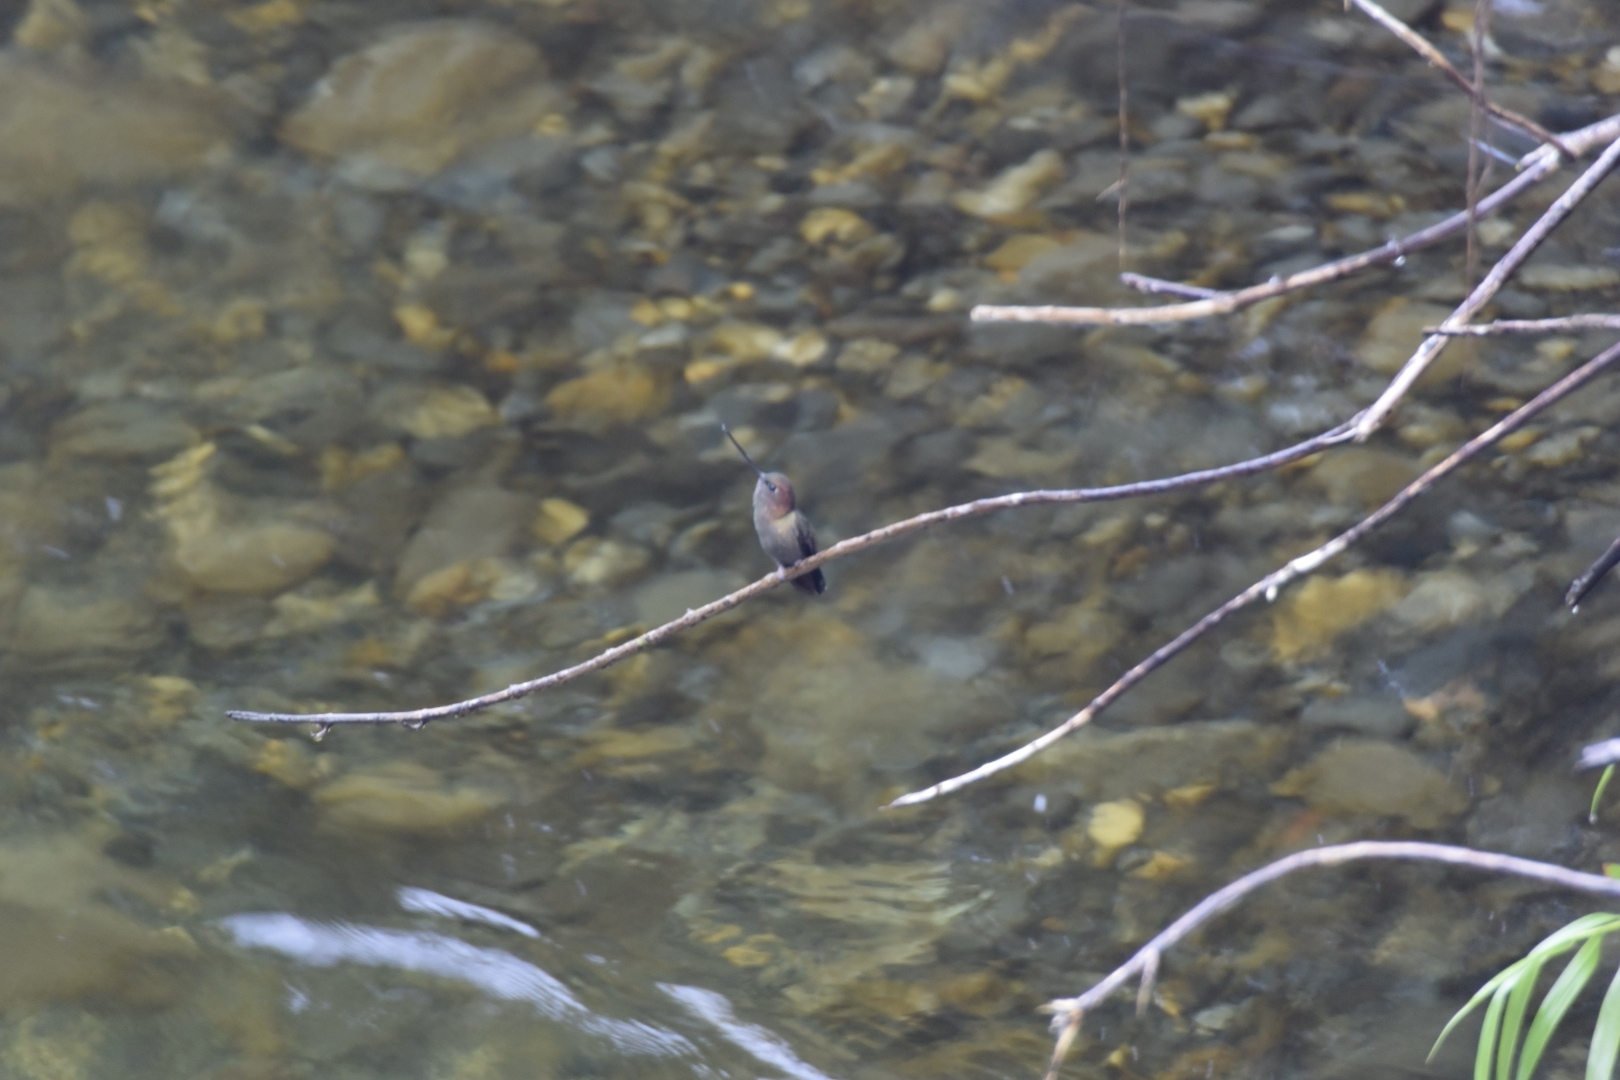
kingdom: Animalia
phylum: Chordata
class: Aves
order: Apodiformes
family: Trochilidae
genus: Doryfera
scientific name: Doryfera ludovicae
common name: Green-fronted lancebill
